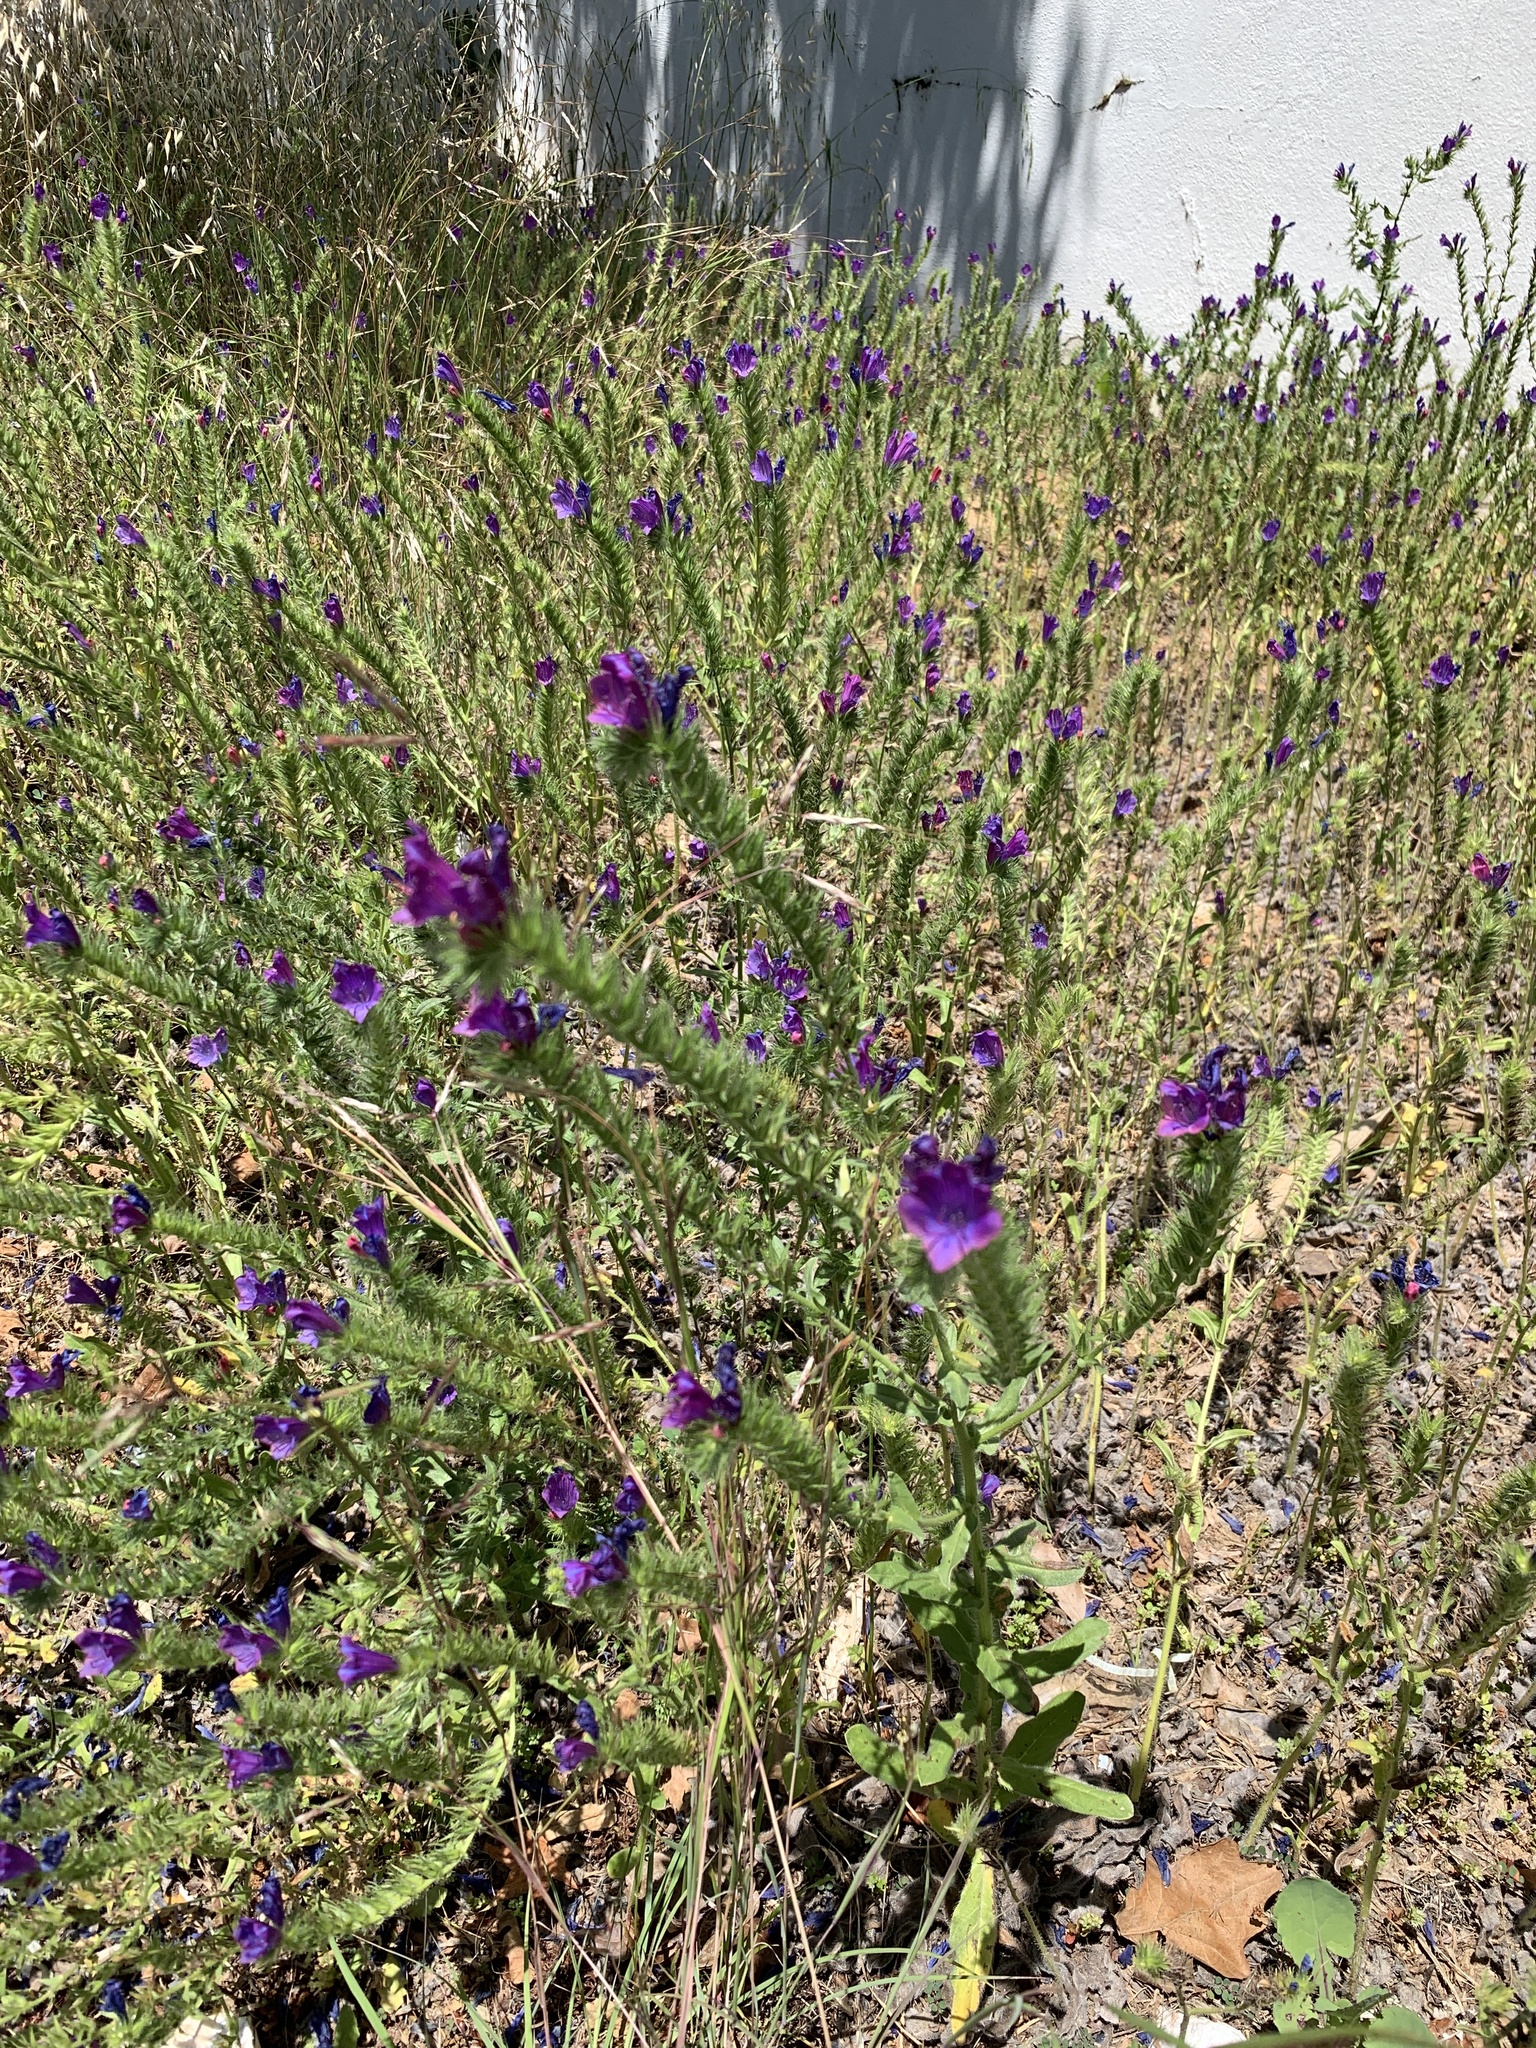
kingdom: Plantae
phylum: Tracheophyta
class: Magnoliopsida
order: Boraginales
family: Boraginaceae
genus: Echium
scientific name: Echium plantagineum
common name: Purple viper's-bugloss
